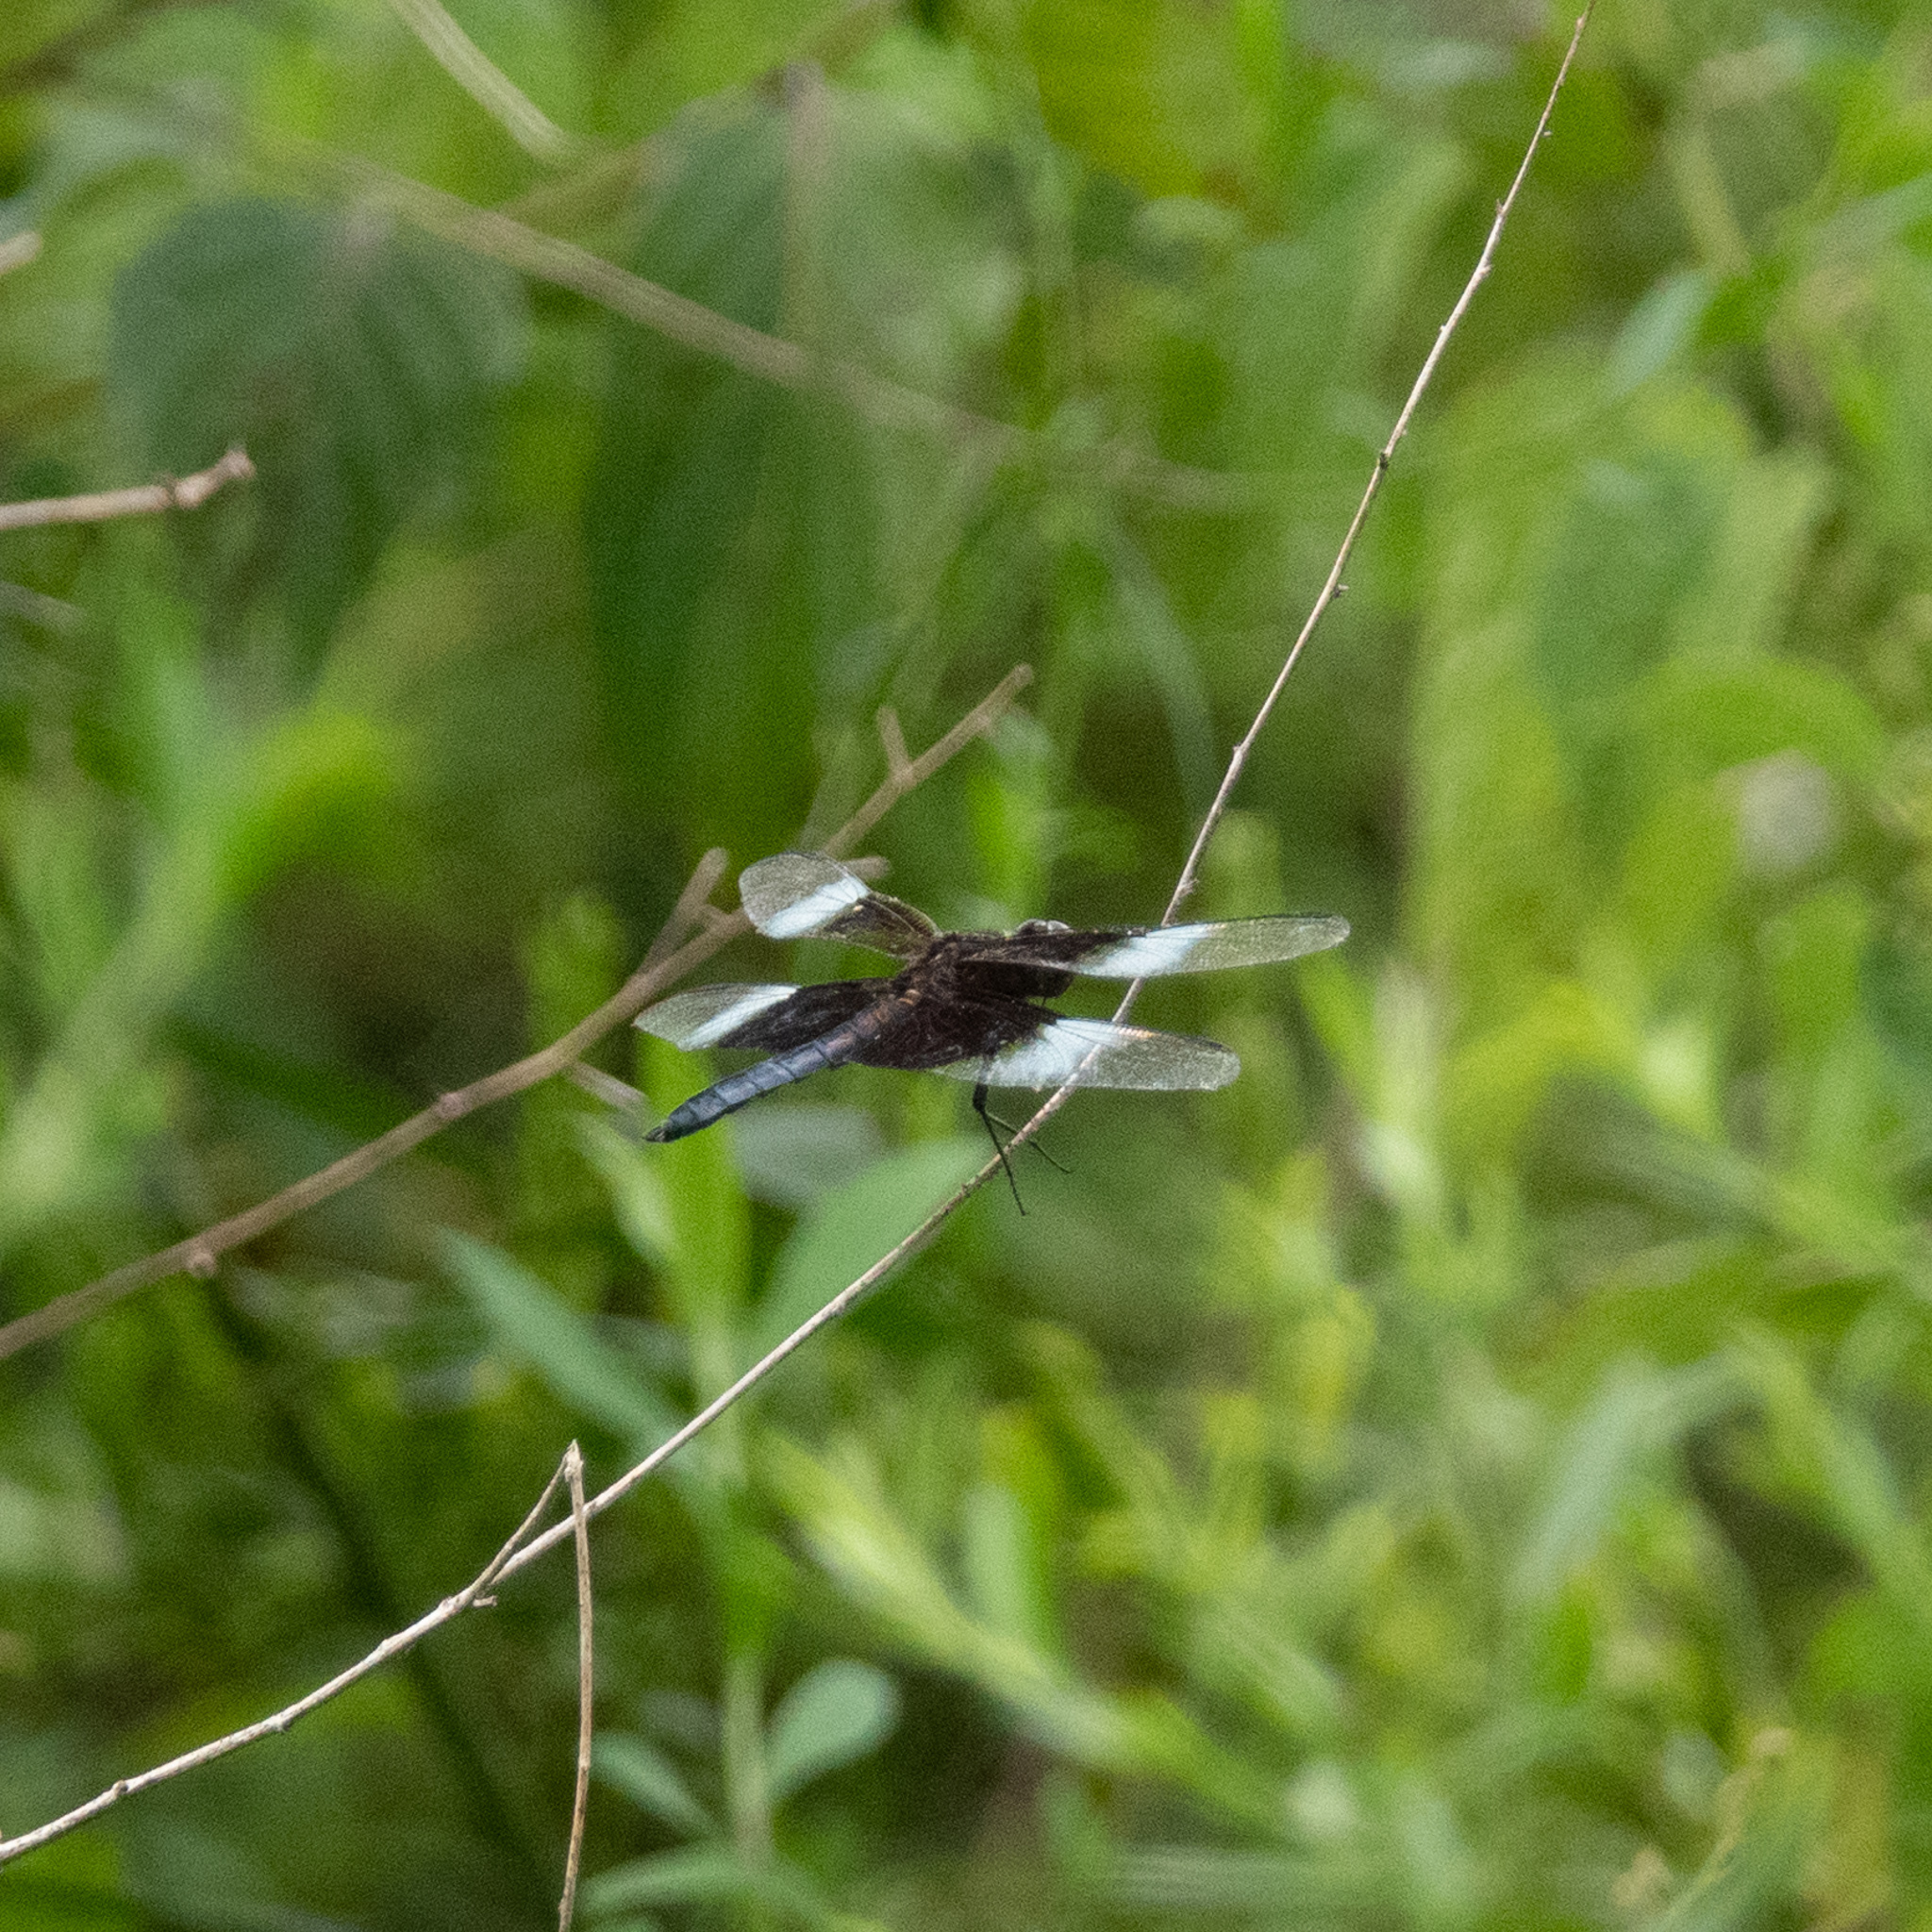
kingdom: Animalia
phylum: Arthropoda
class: Insecta
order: Odonata
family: Libellulidae
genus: Libellula
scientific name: Libellula luctuosa
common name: Widow skimmer
